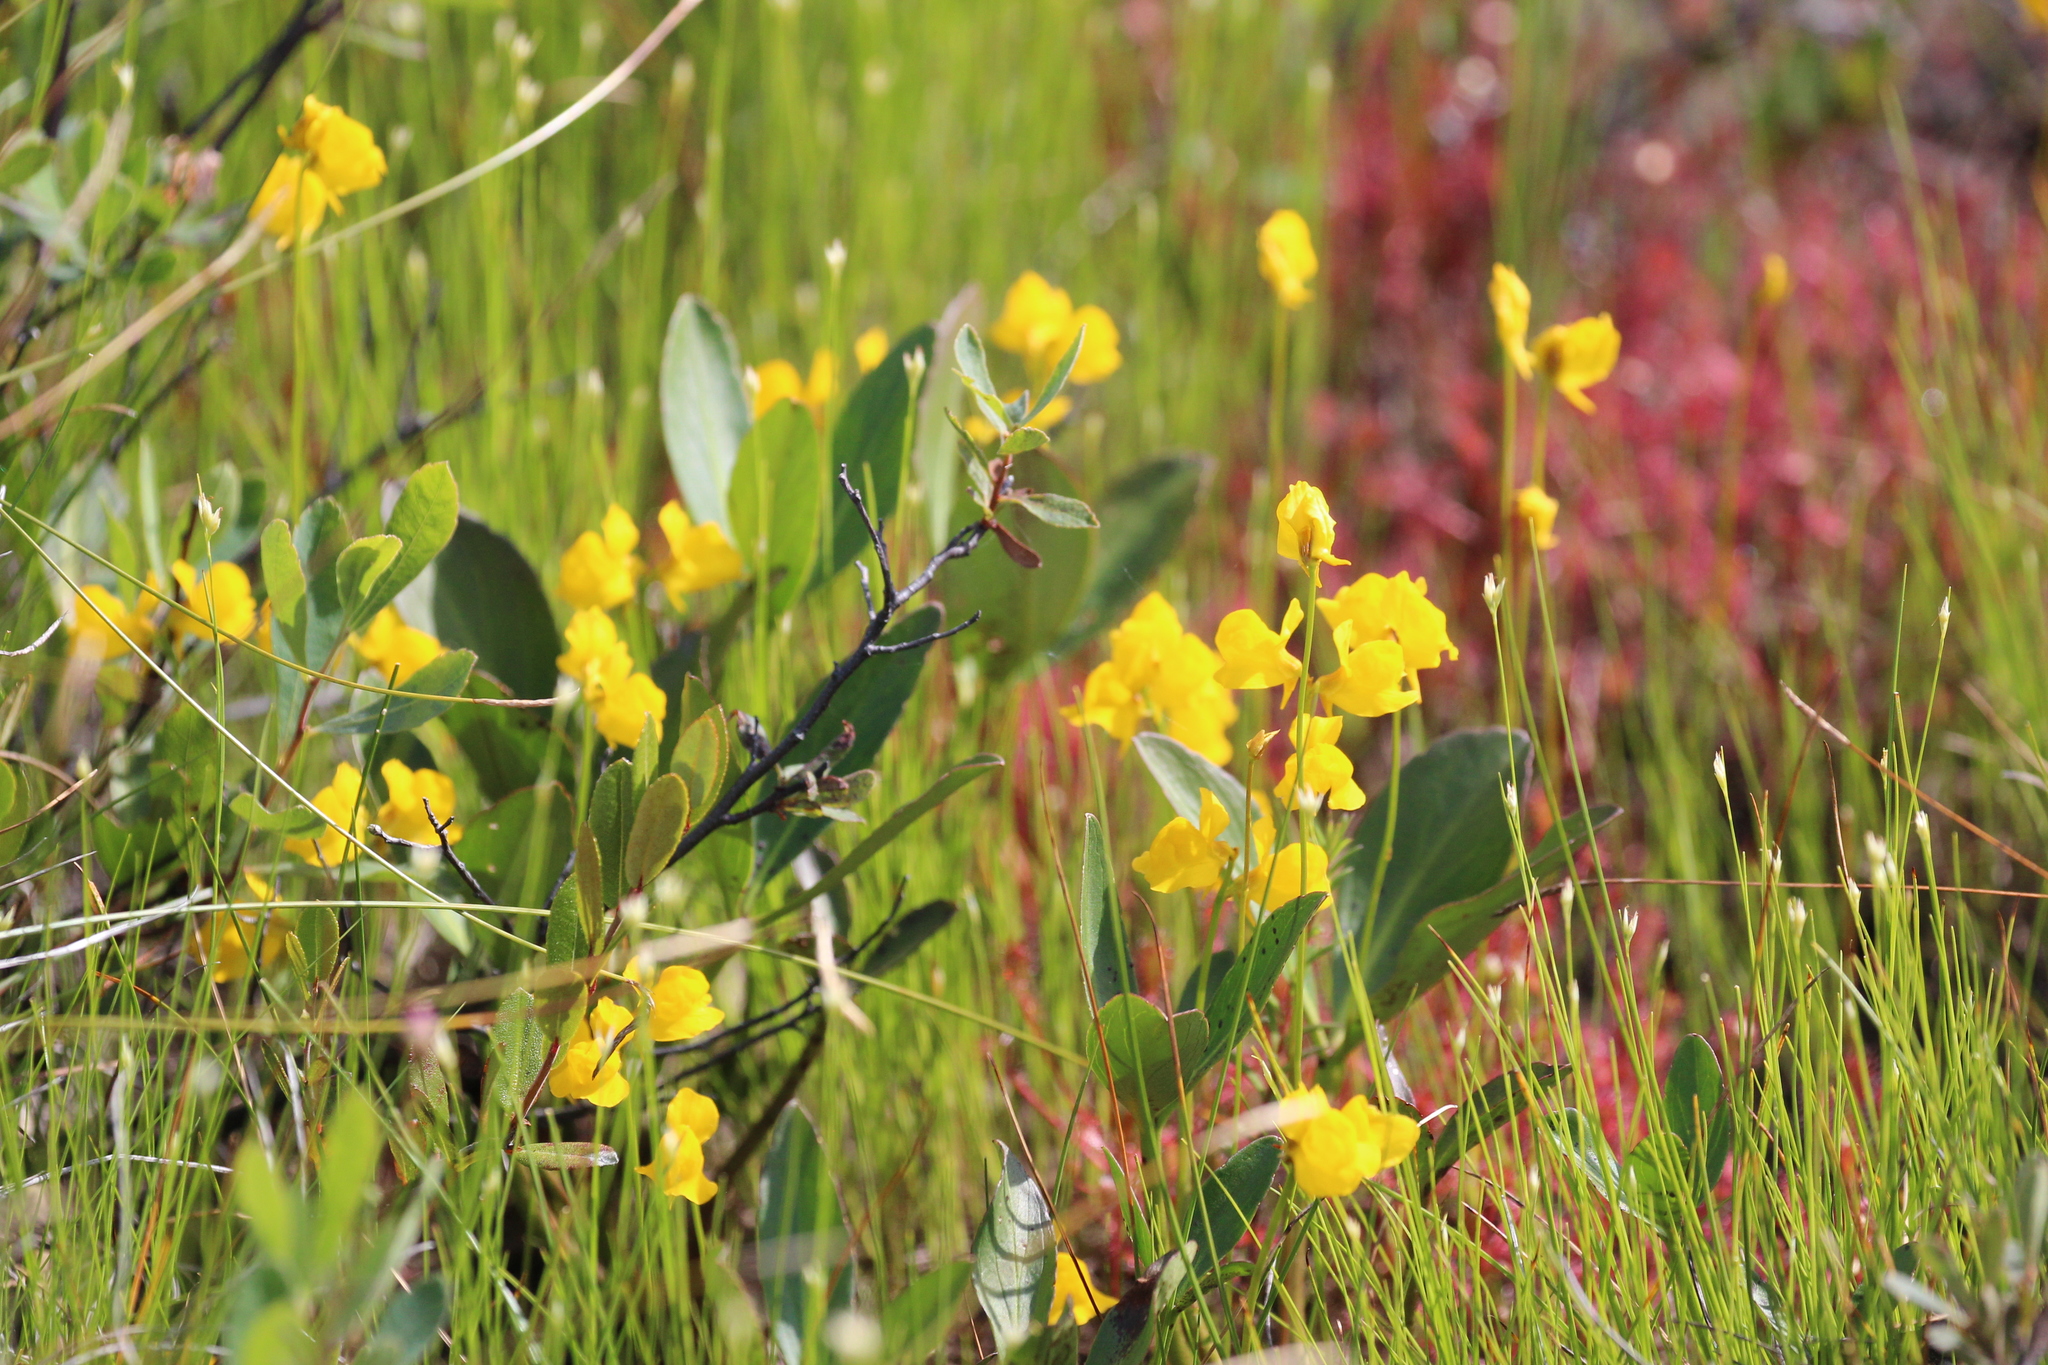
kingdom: Plantae
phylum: Tracheophyta
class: Magnoliopsida
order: Lamiales
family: Lentibulariaceae
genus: Utricularia
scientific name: Utricularia cornuta
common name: Horned bladderwort
